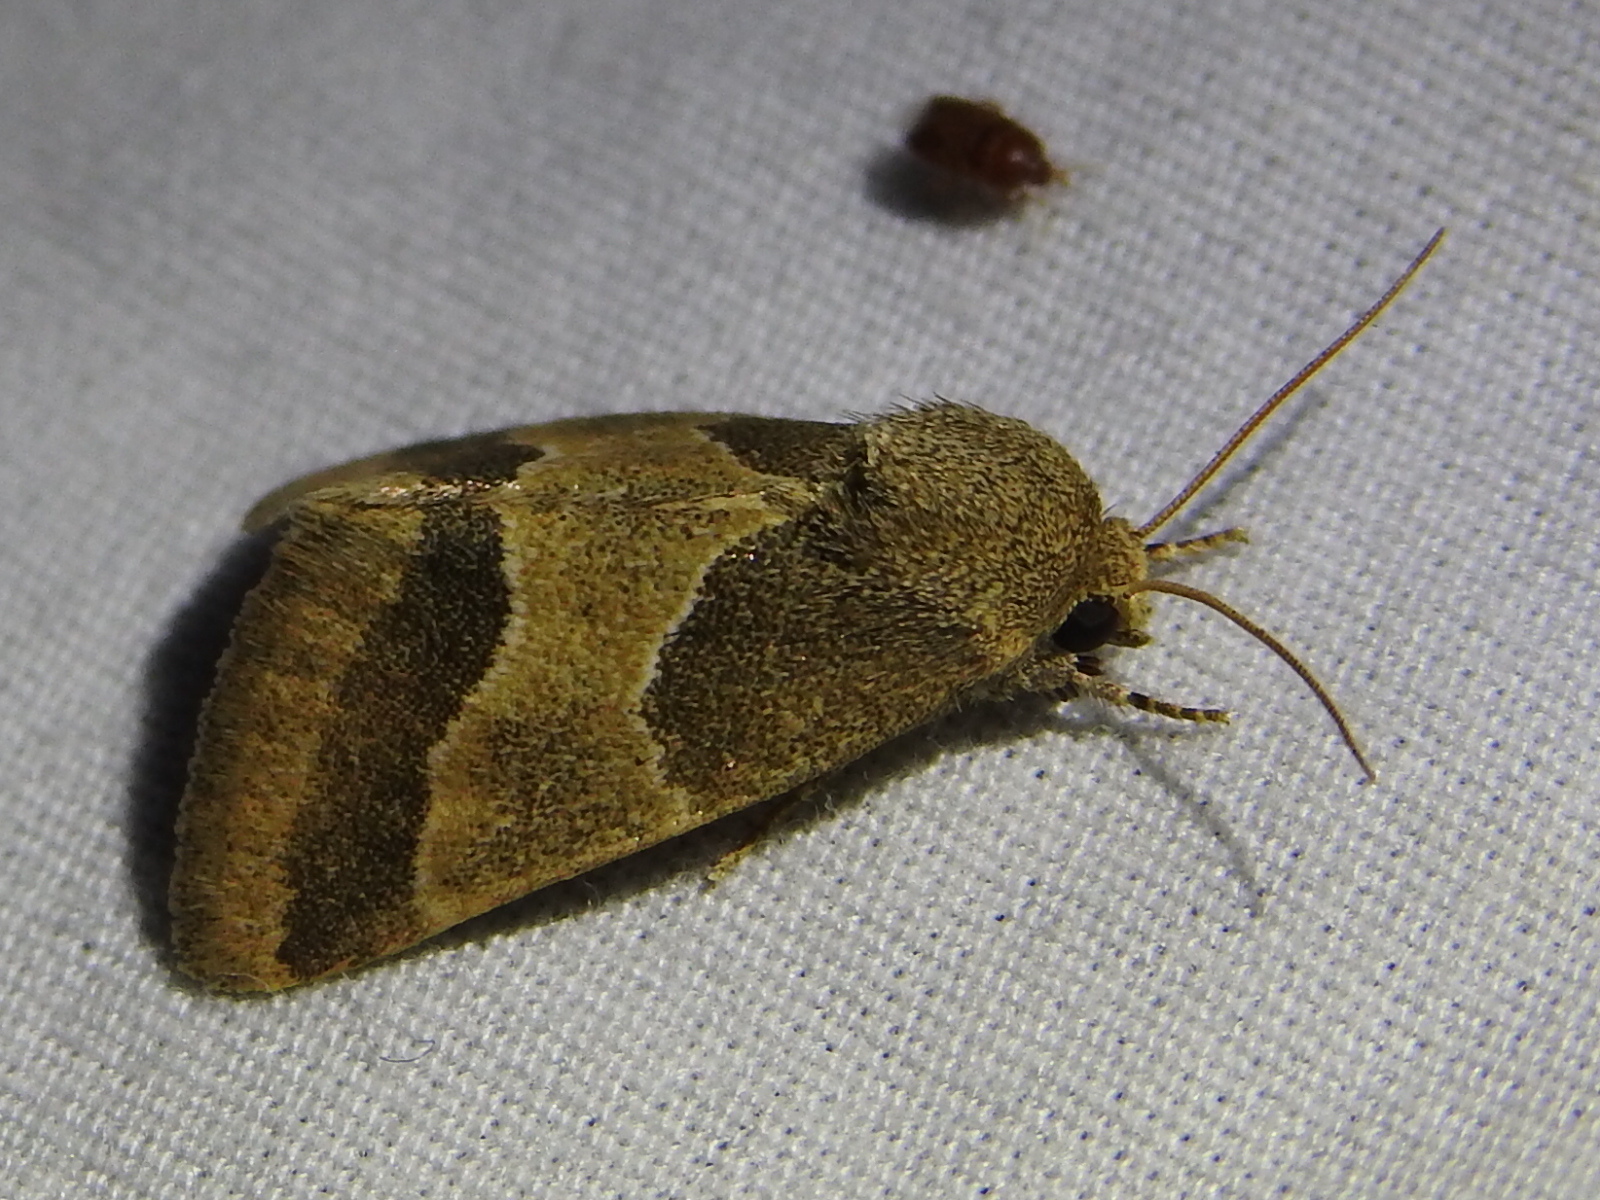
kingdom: Animalia
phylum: Arthropoda
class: Insecta
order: Lepidoptera
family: Noctuidae
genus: Schinia
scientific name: Schinia arcigera
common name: Arcigera flower moth
